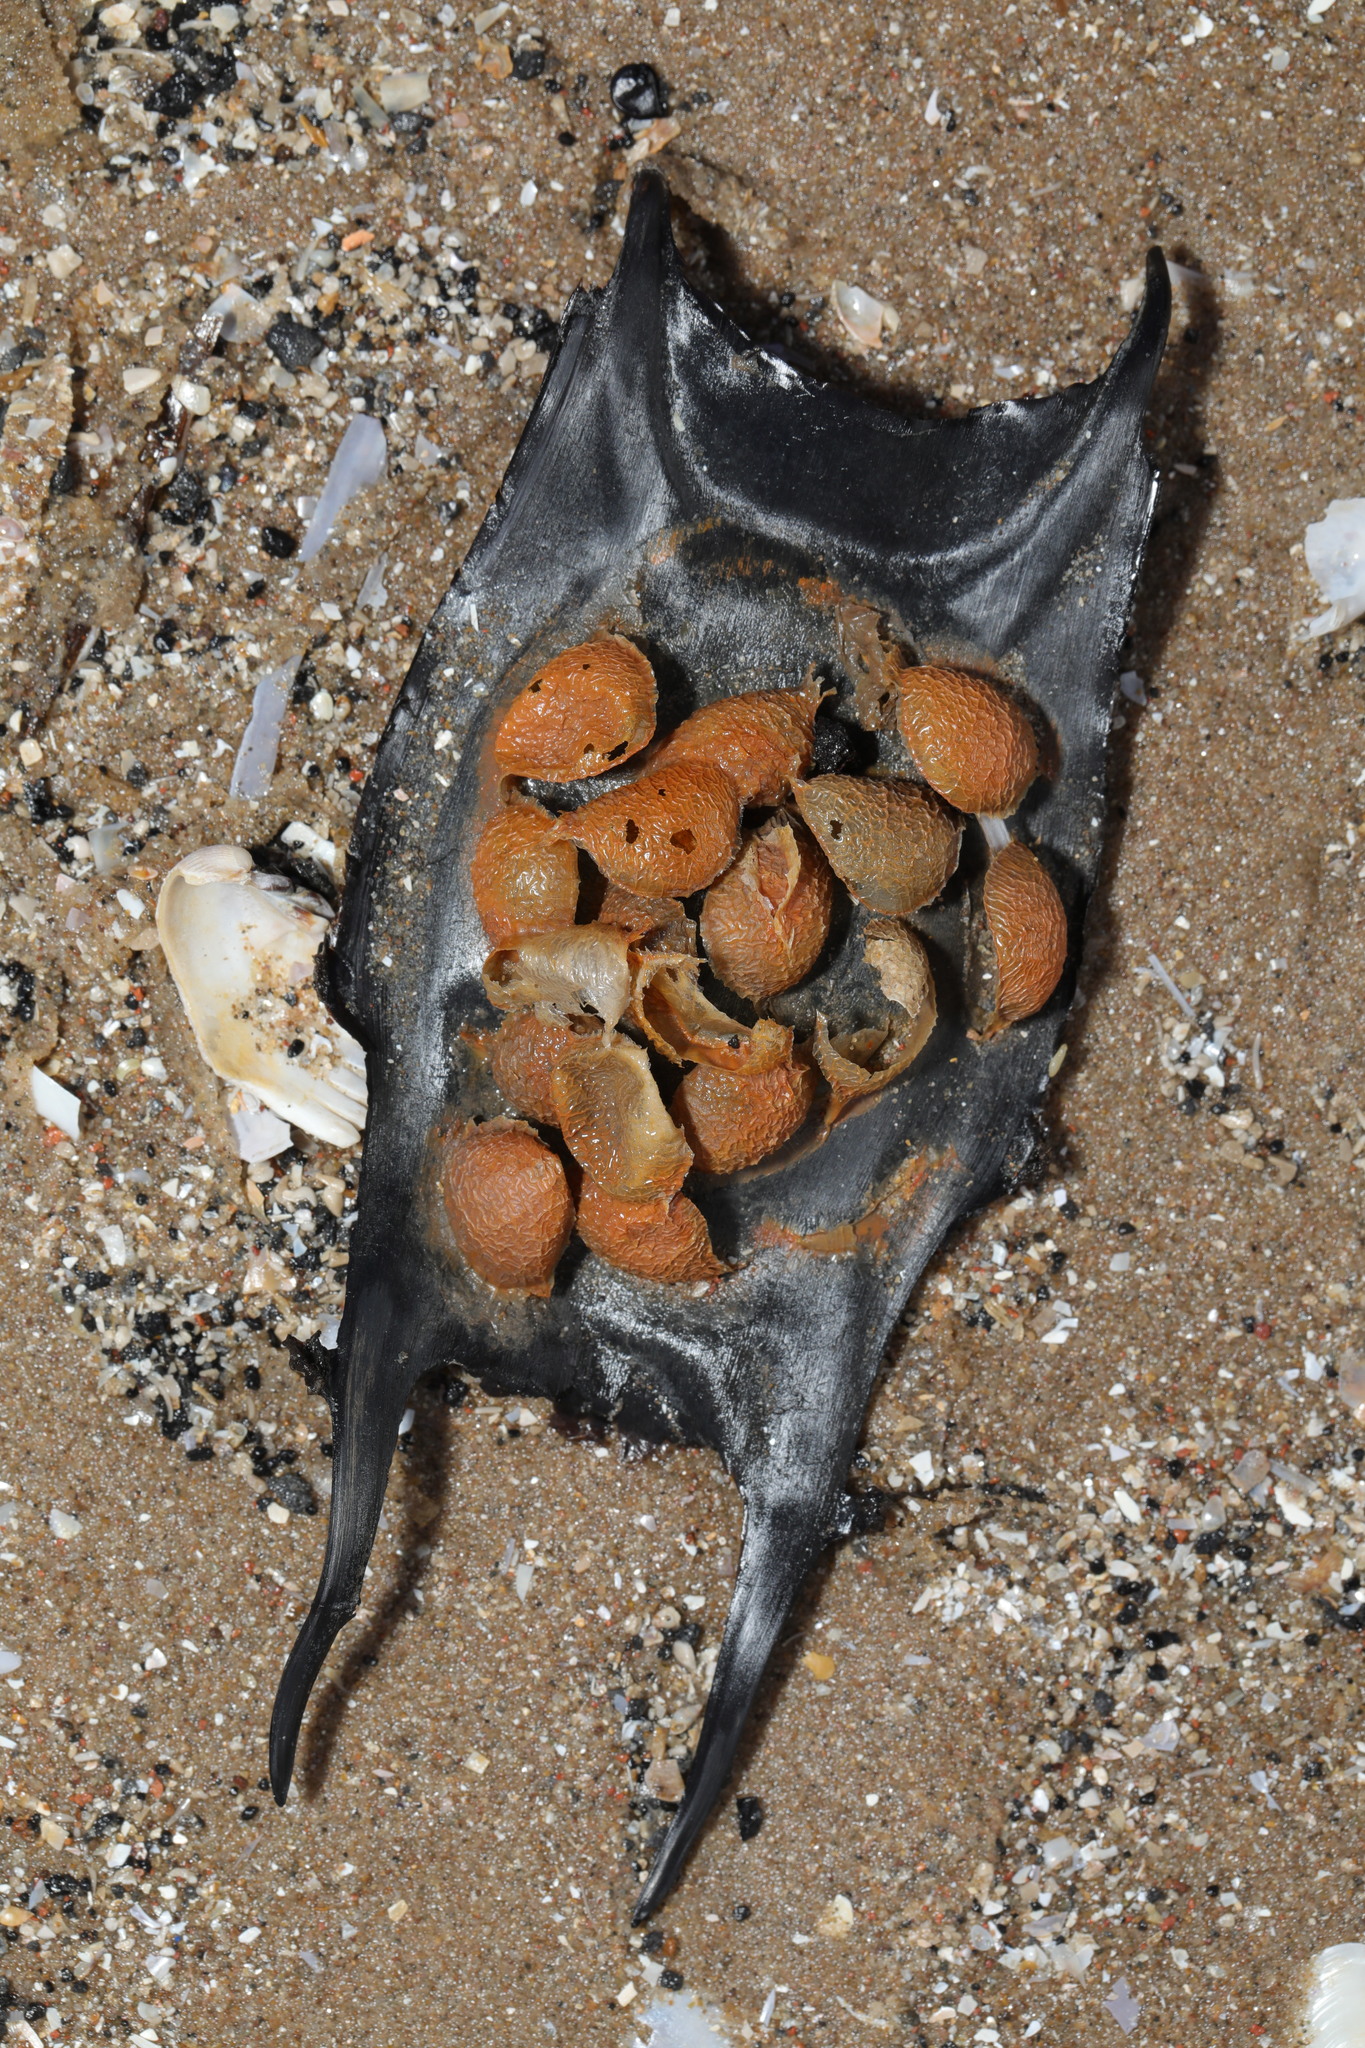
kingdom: Animalia
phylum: Chordata
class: Elasmobranchii
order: Rajiformes
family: Rajidae
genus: Raja
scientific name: Raja clavata
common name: Thornback ray
